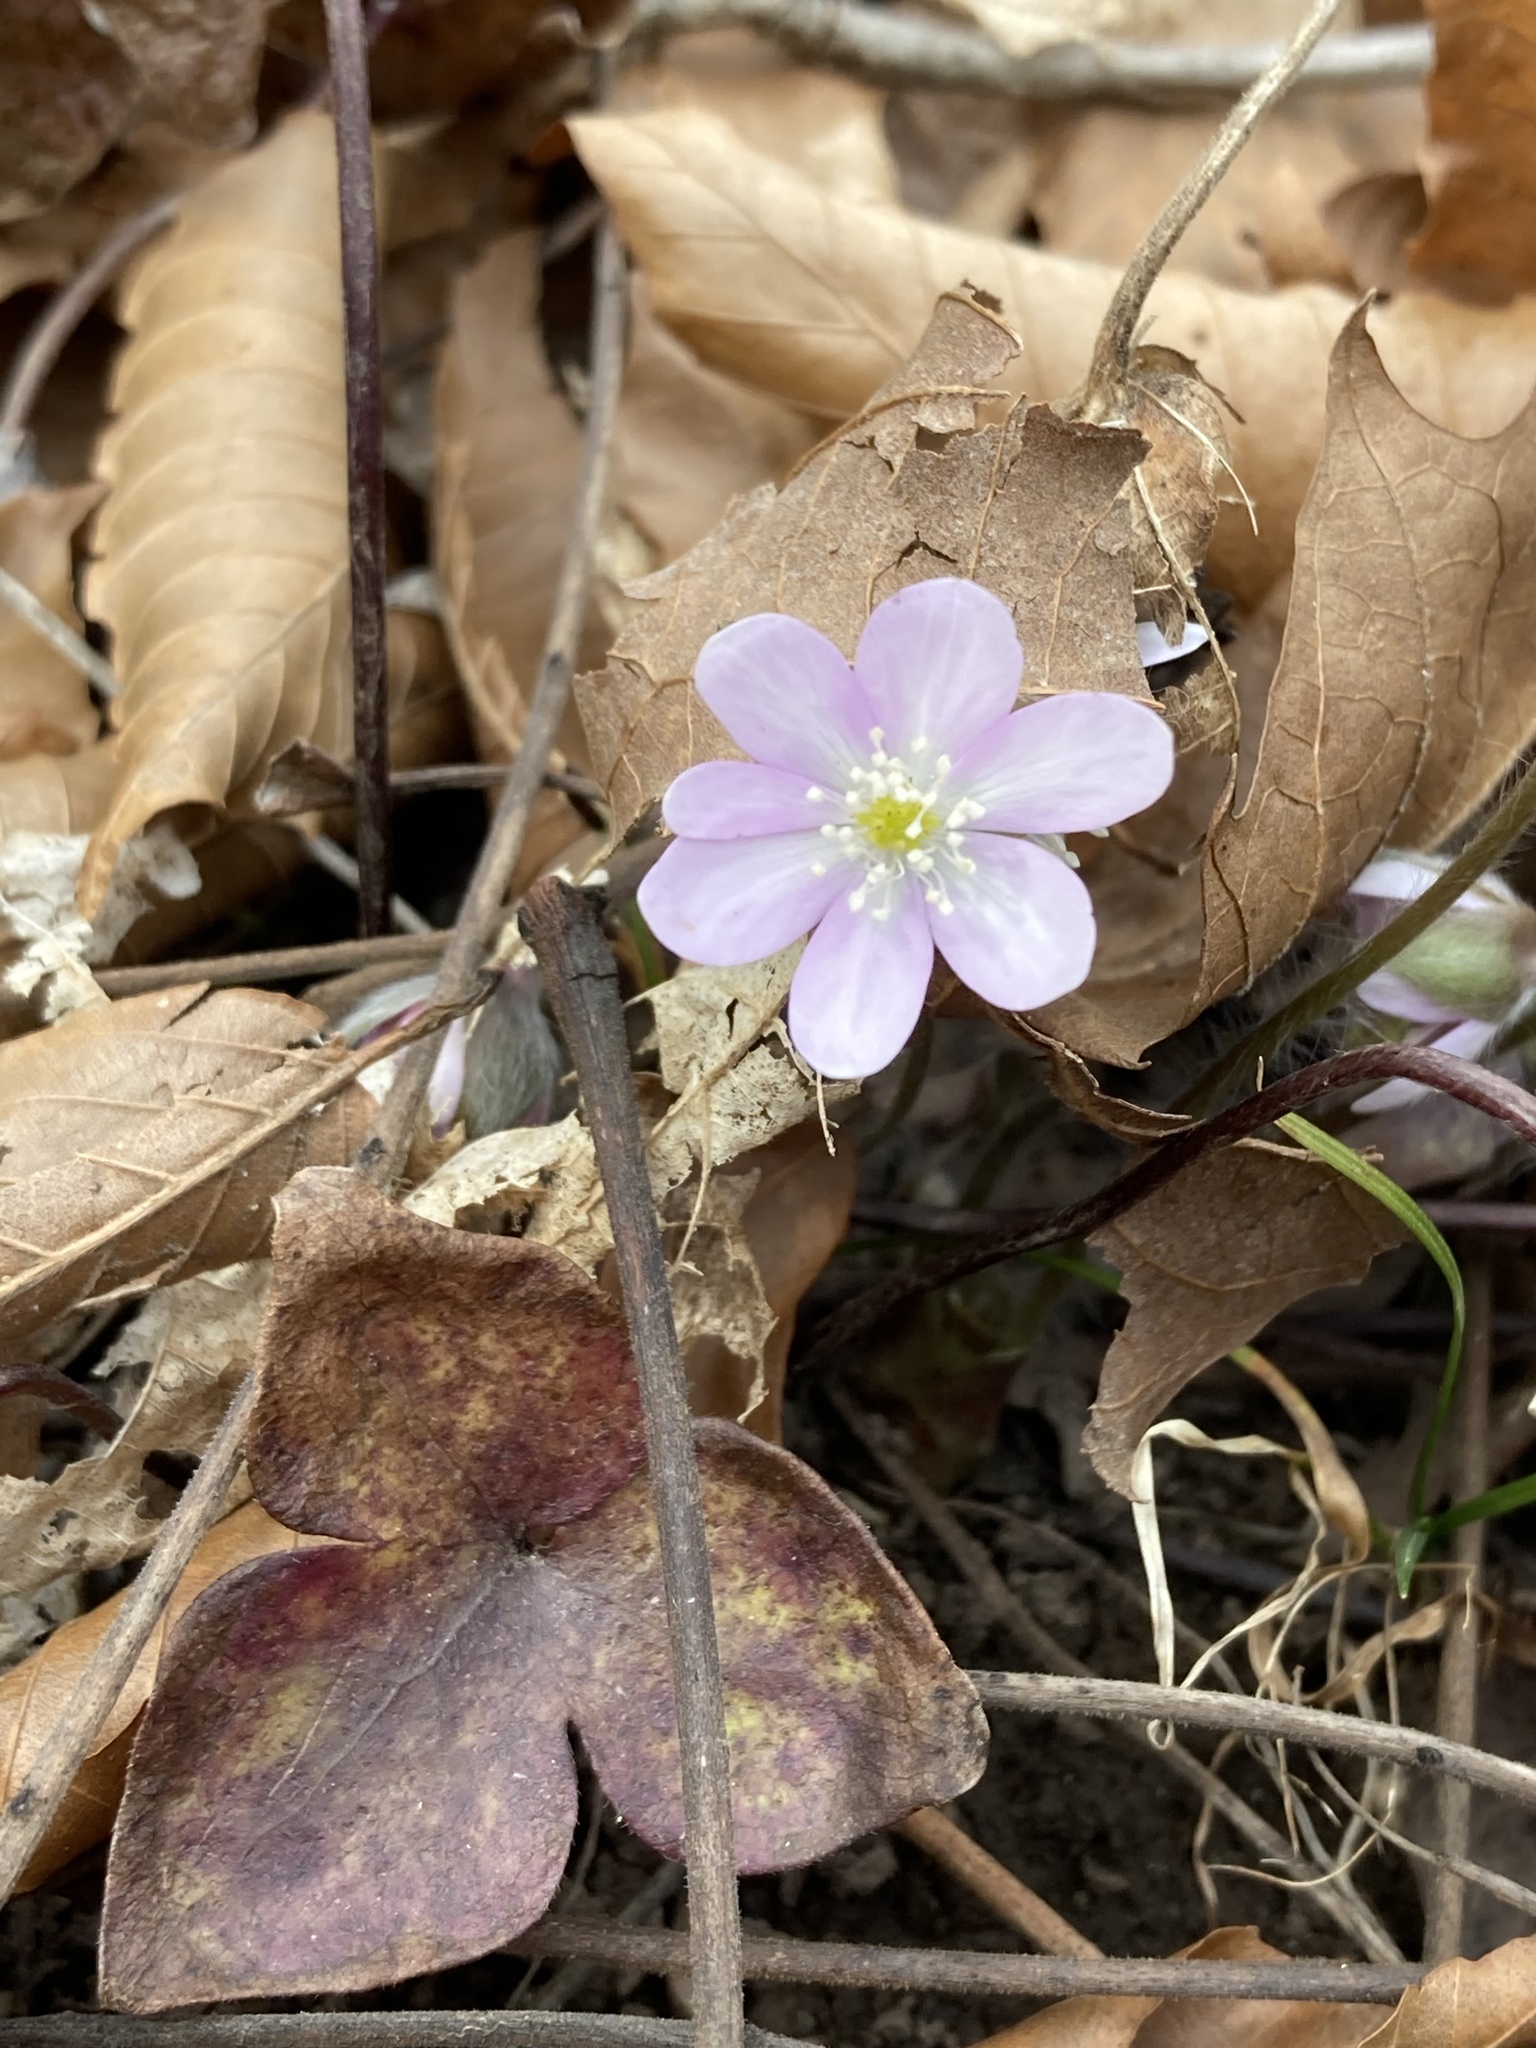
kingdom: Plantae
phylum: Tracheophyta
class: Magnoliopsida
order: Ranunculales
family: Ranunculaceae
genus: Hepatica
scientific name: Hepatica acutiloba
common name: Sharp-lobed hepatica
